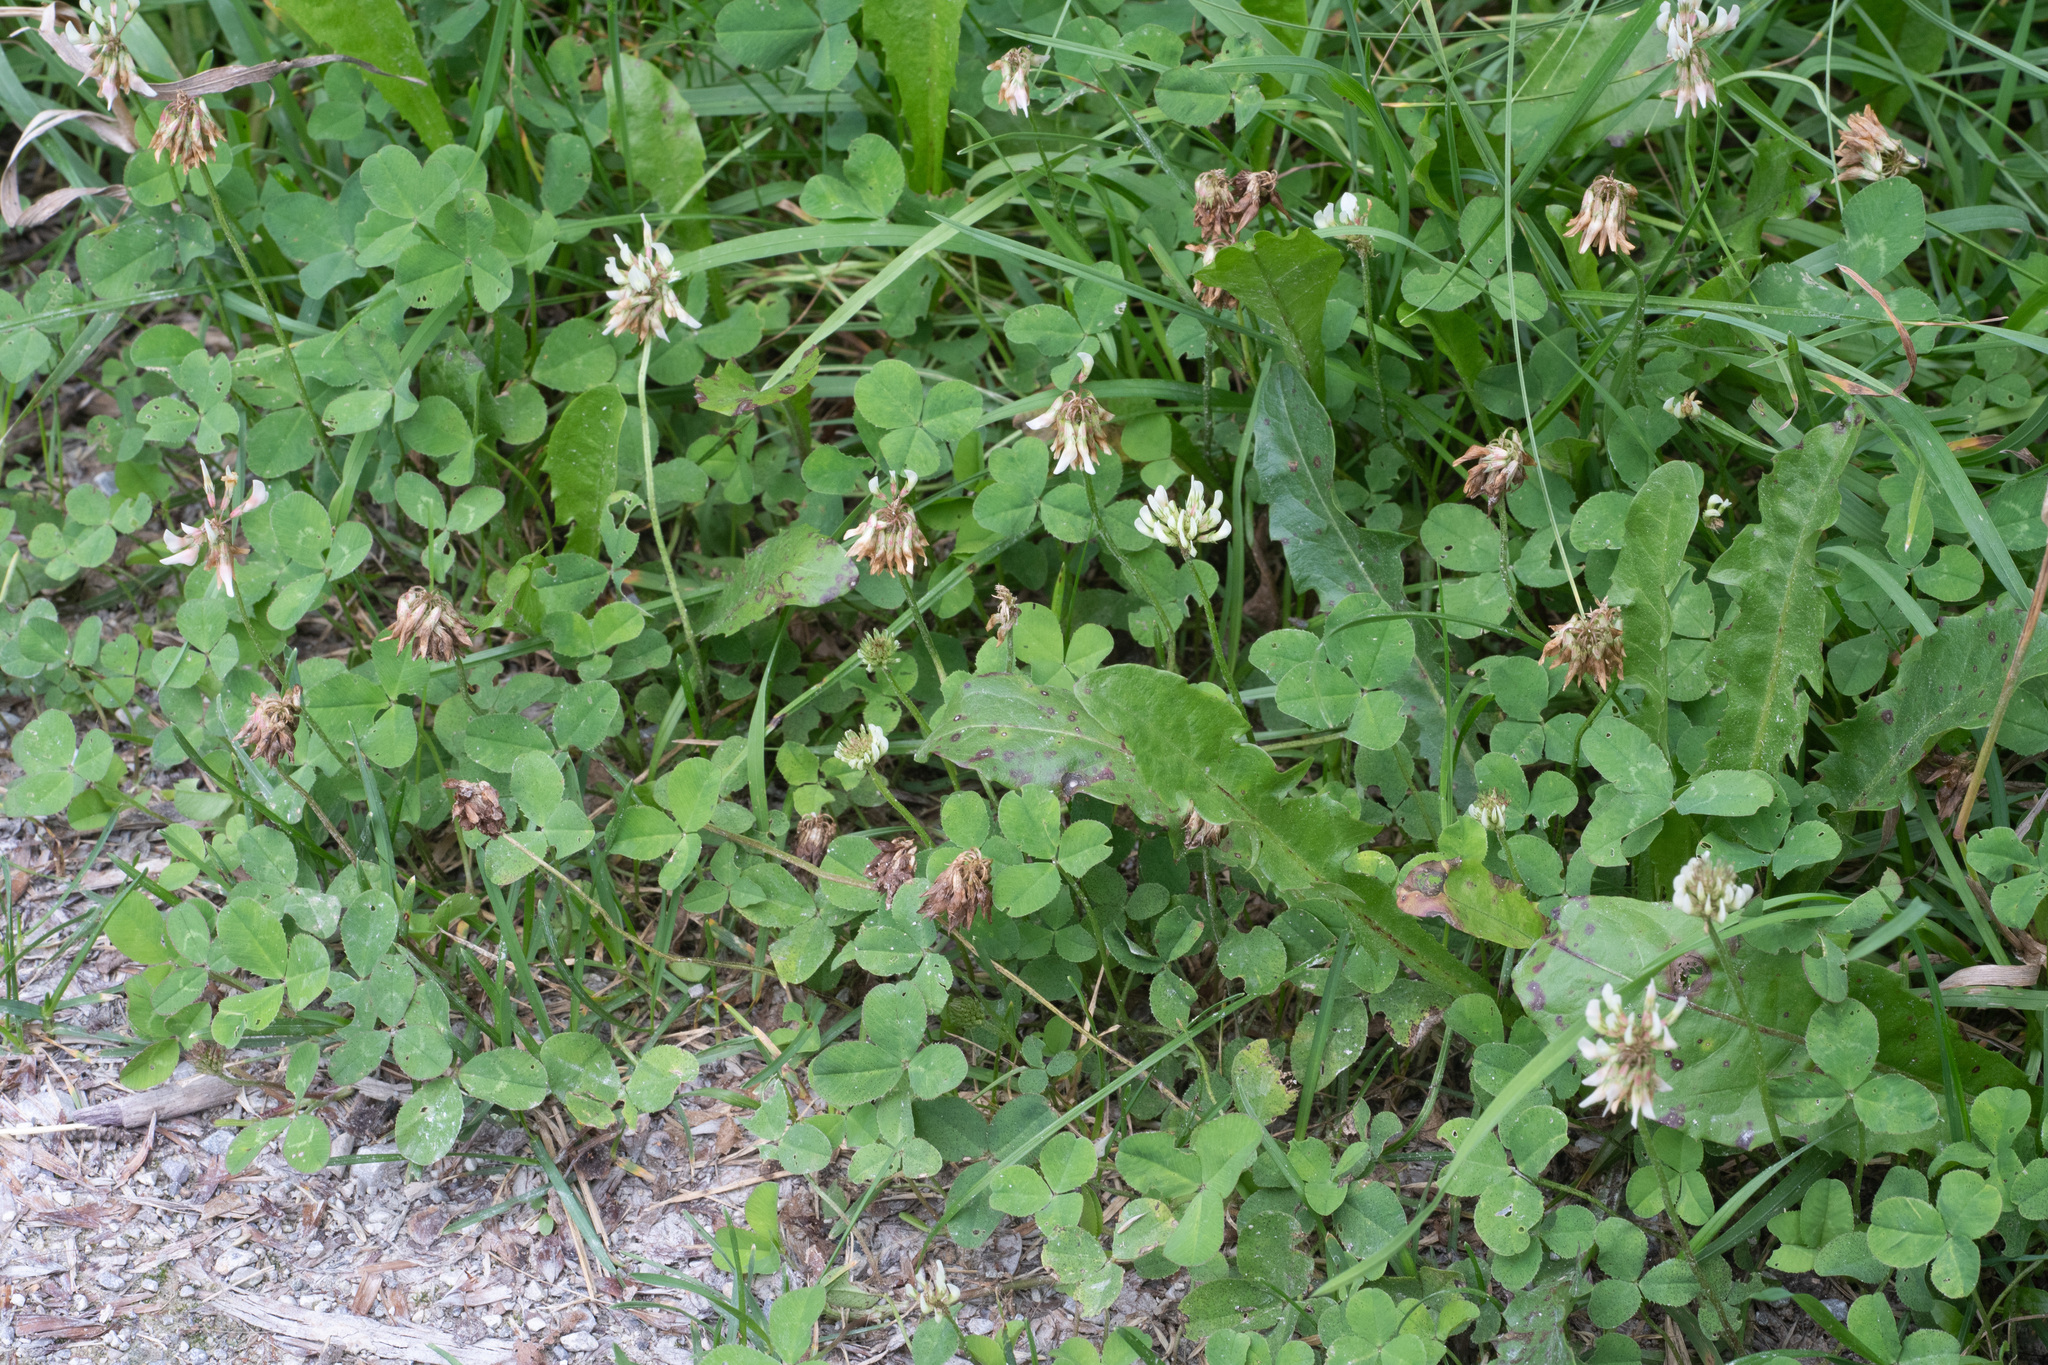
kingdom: Plantae
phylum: Tracheophyta
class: Magnoliopsida
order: Fabales
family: Fabaceae
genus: Trifolium
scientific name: Trifolium repens
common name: White clover
